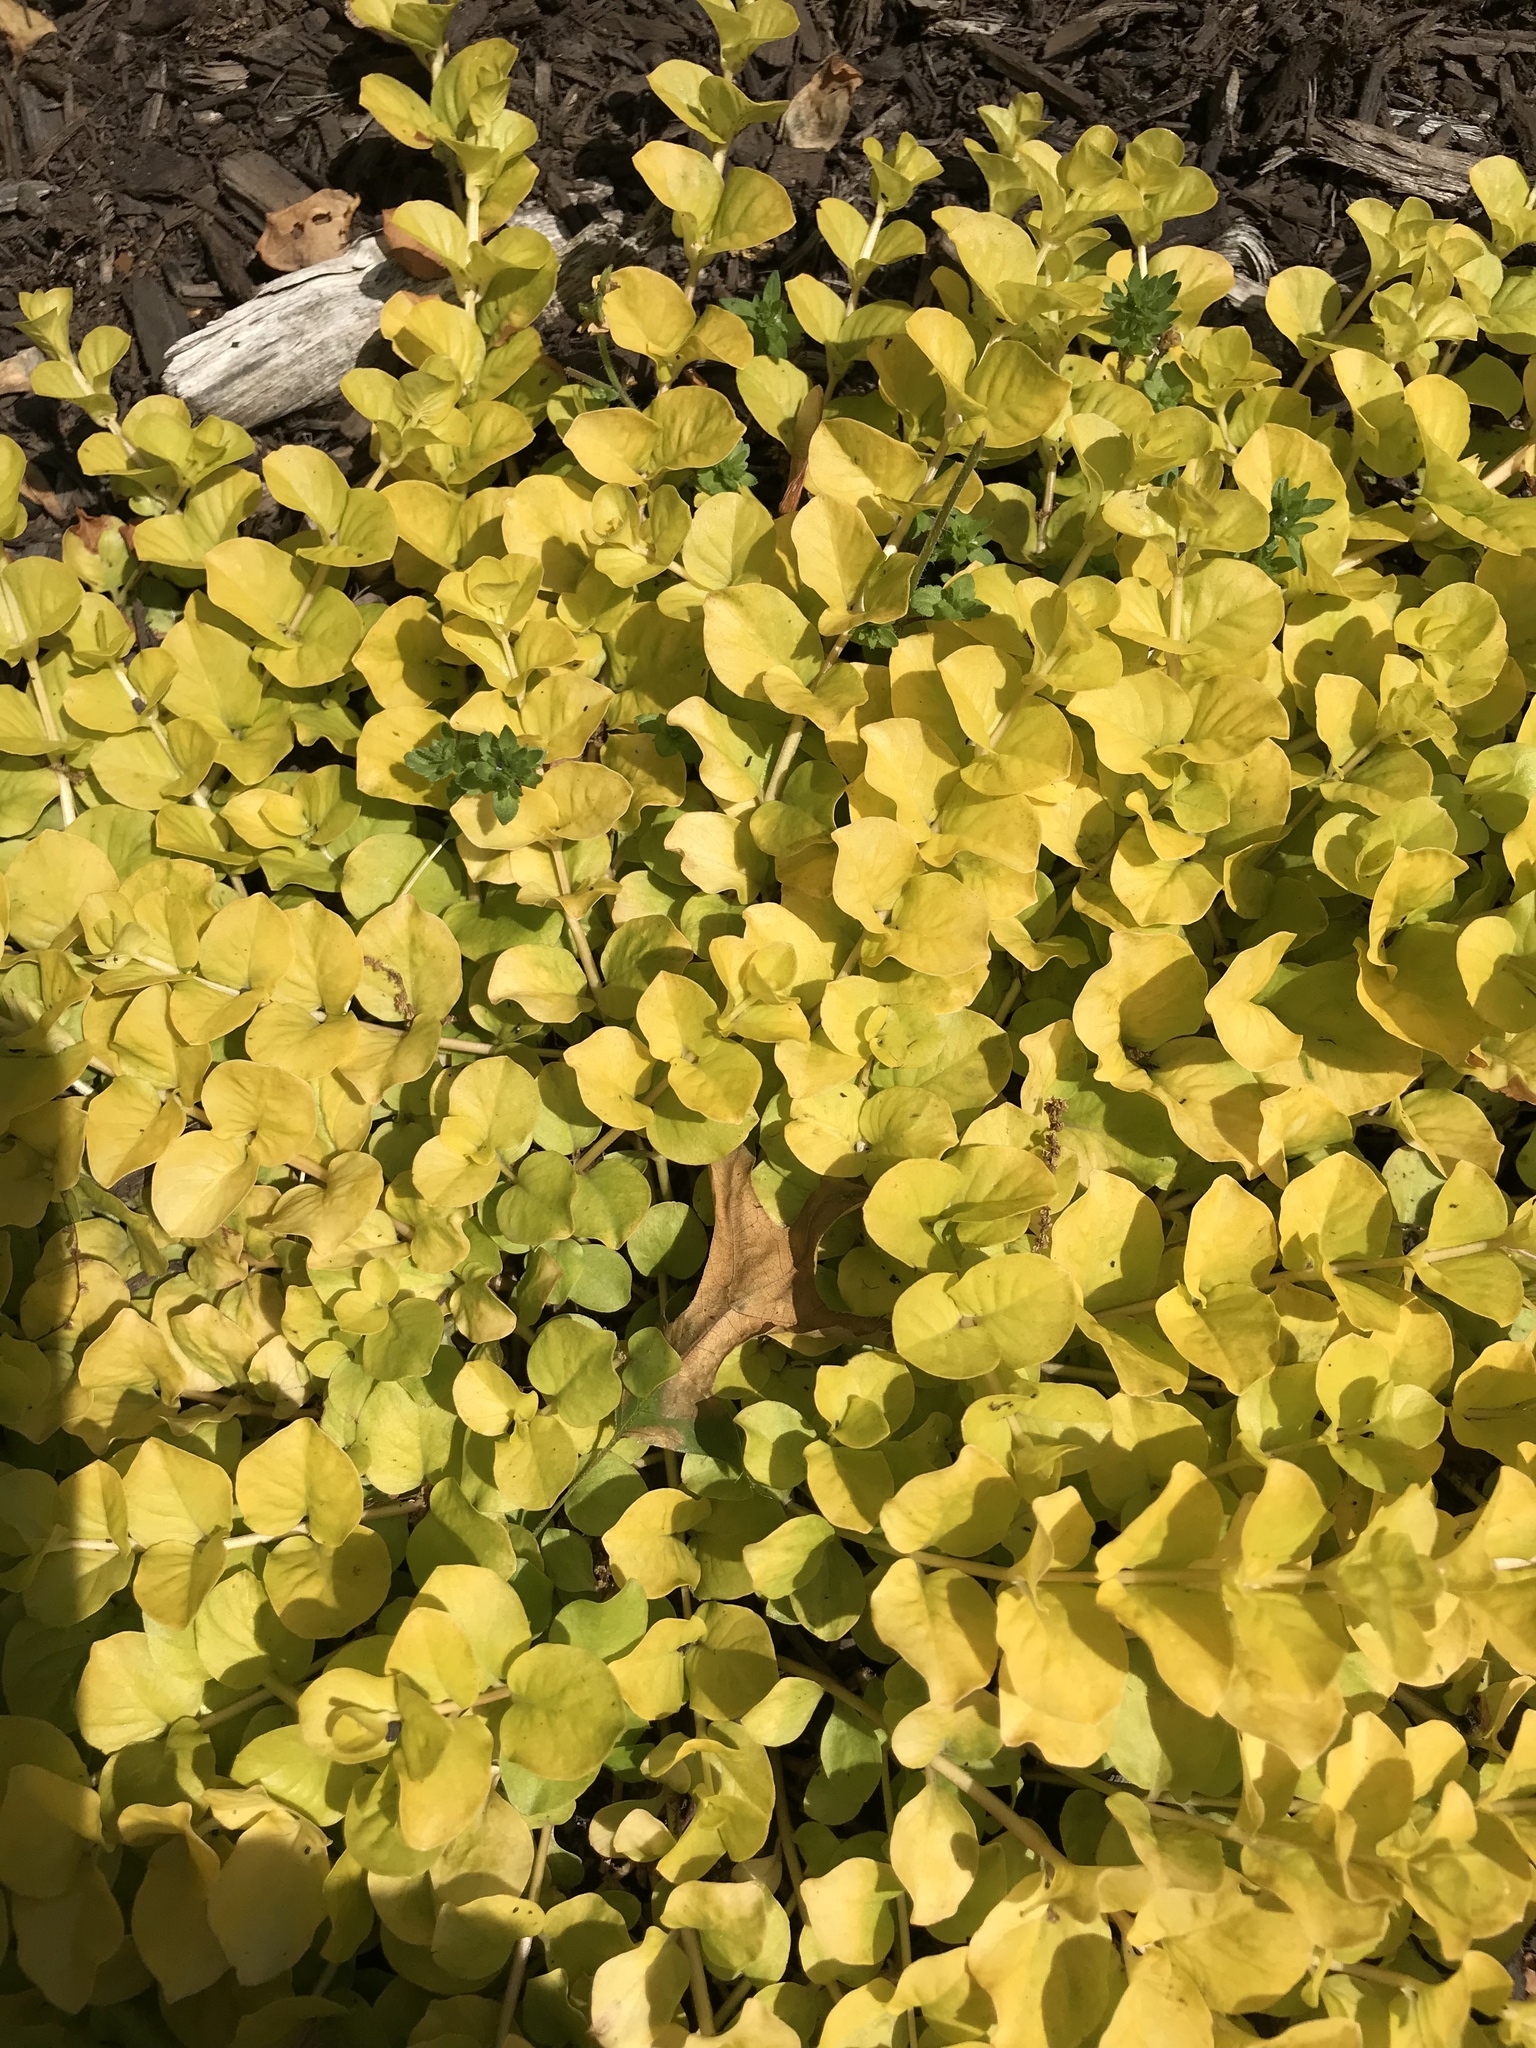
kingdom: Plantae
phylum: Tracheophyta
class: Magnoliopsida
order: Ericales
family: Primulaceae
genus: Lysimachia
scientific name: Lysimachia nummularia
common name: Moneywort
